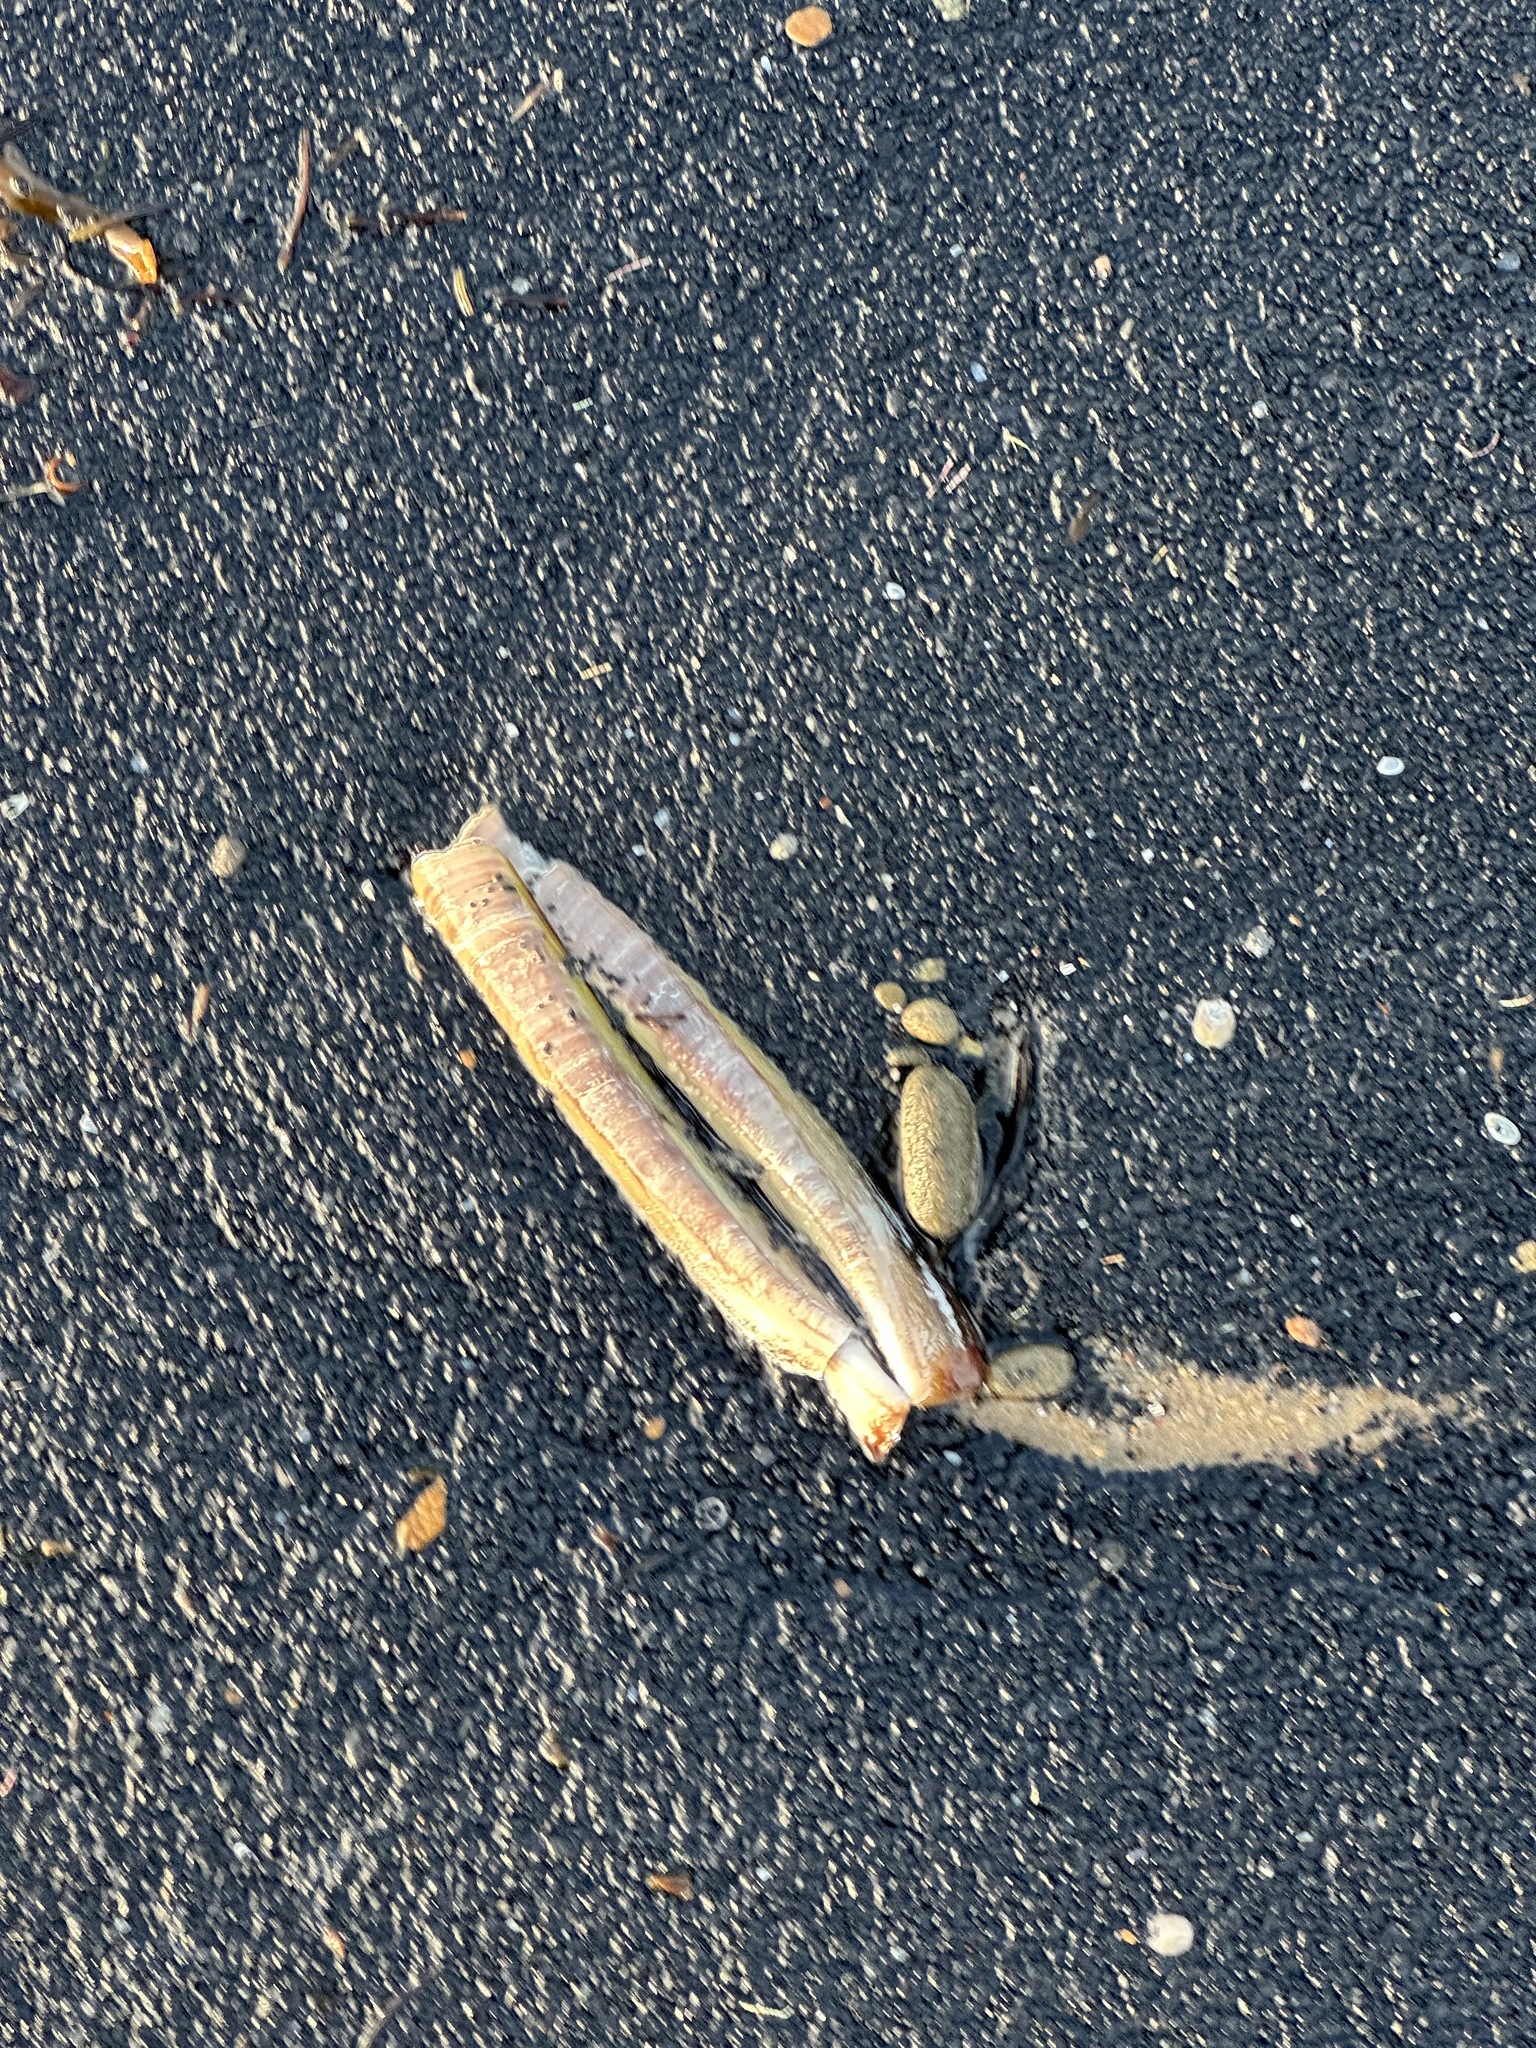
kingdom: Animalia
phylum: Mollusca
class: Bivalvia
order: Adapedonta
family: Pharidae
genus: Ensis
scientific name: Ensis leei
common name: American jack knife clam
